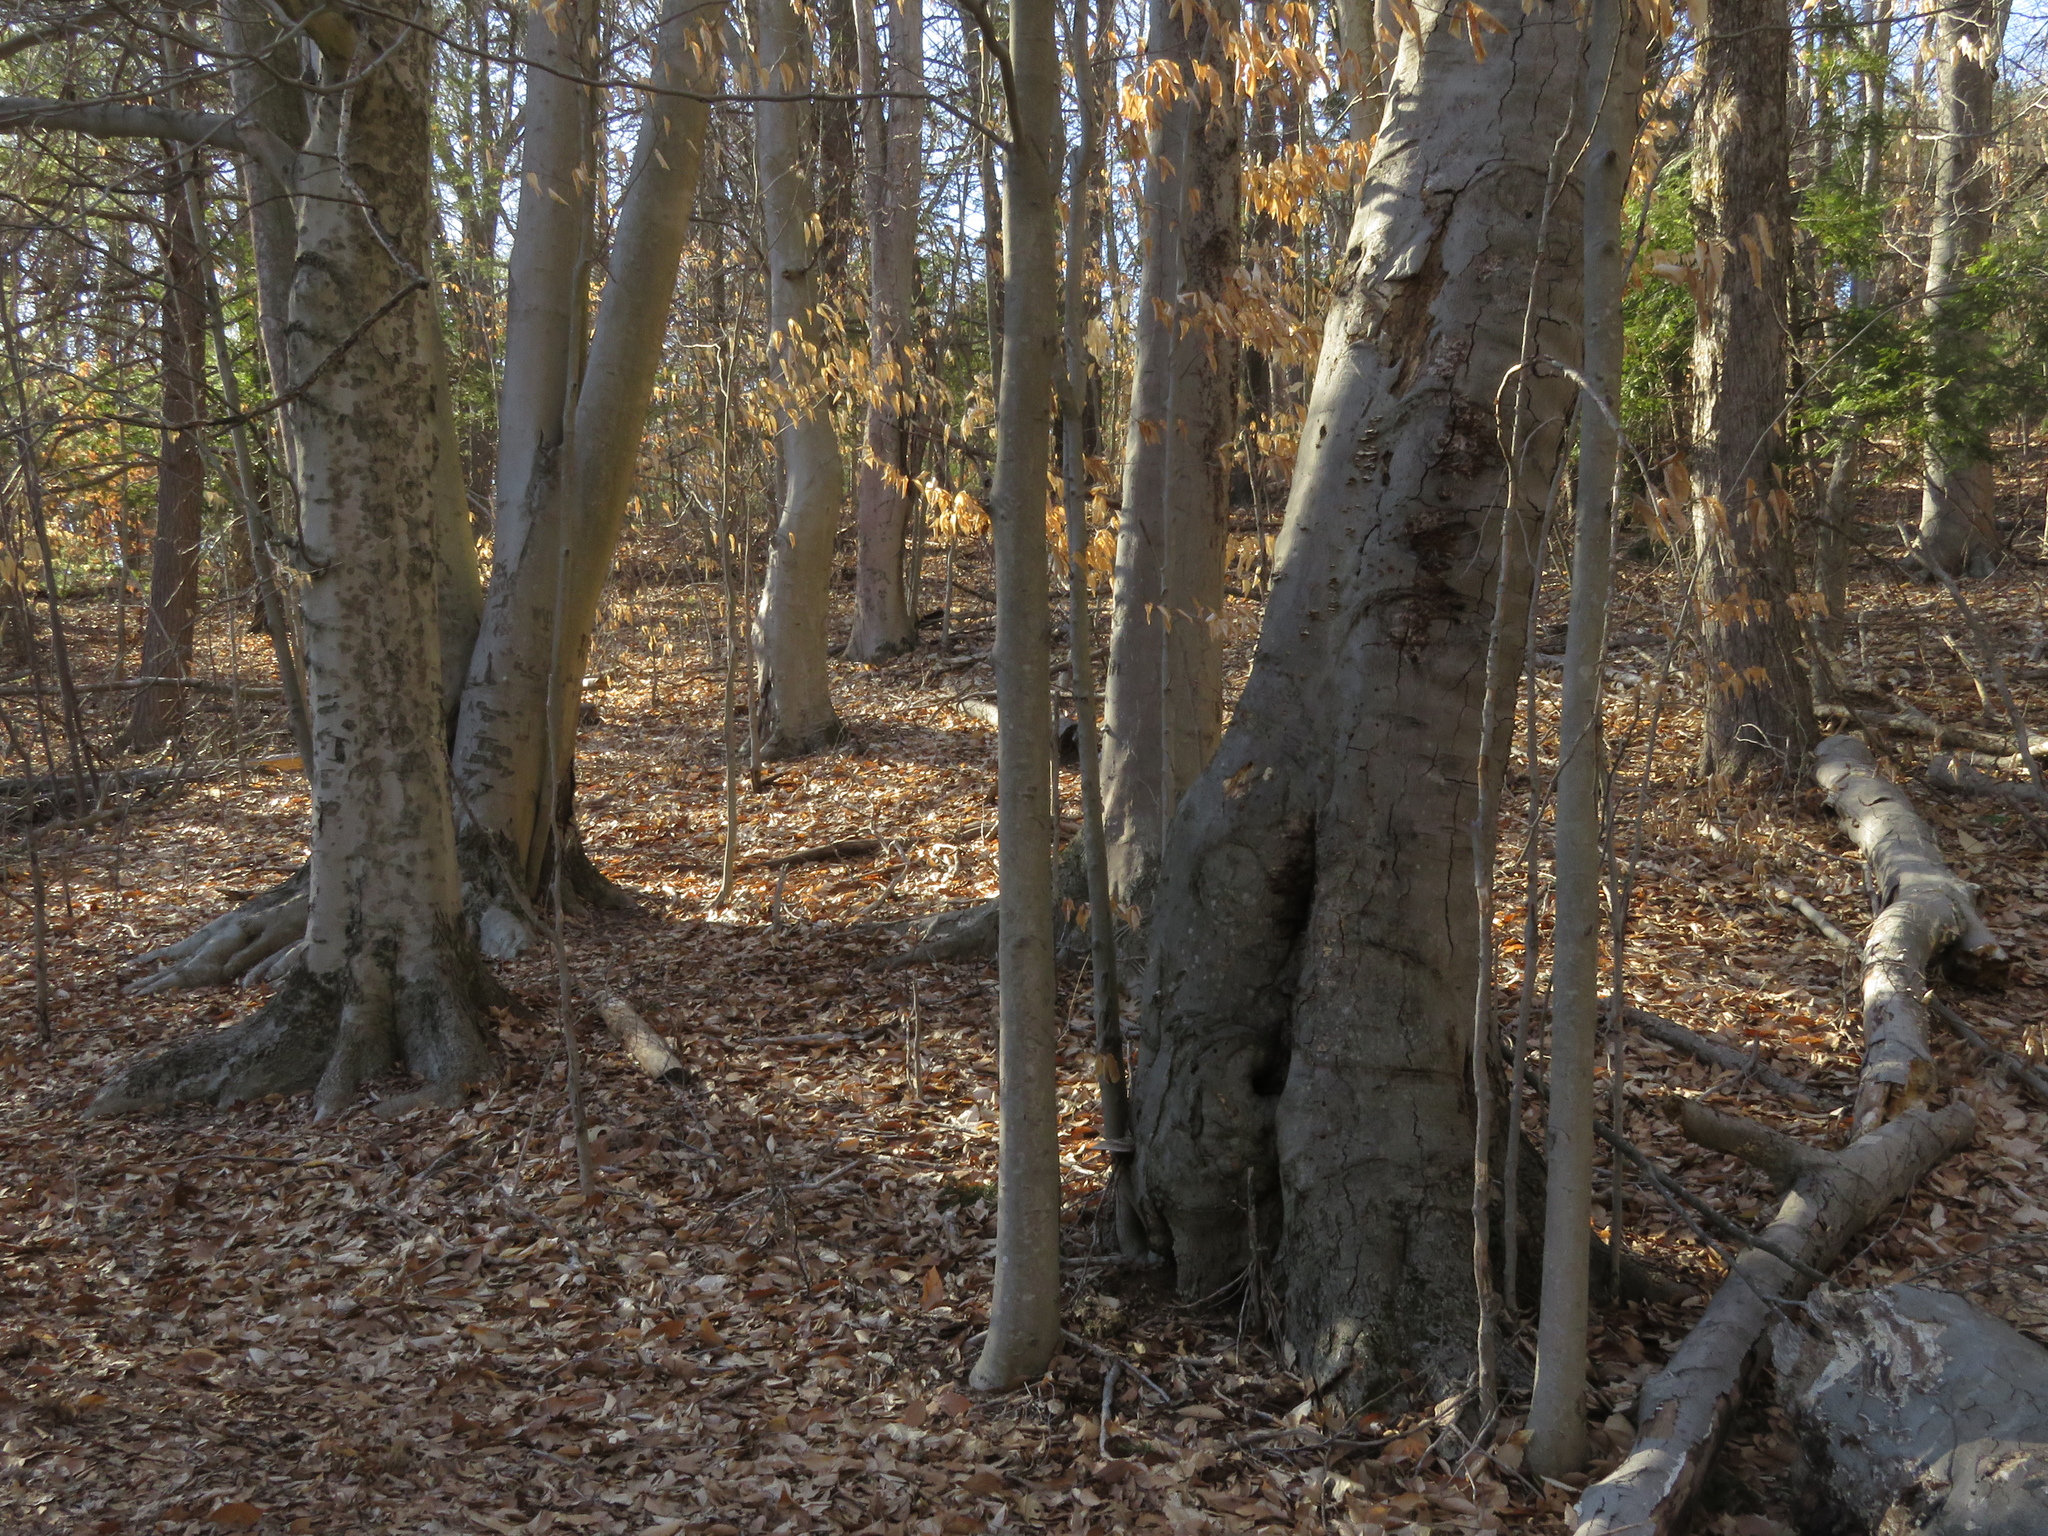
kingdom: Plantae
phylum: Tracheophyta
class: Magnoliopsida
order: Fagales
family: Fagaceae
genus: Fagus
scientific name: Fagus grandifolia
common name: American beech
